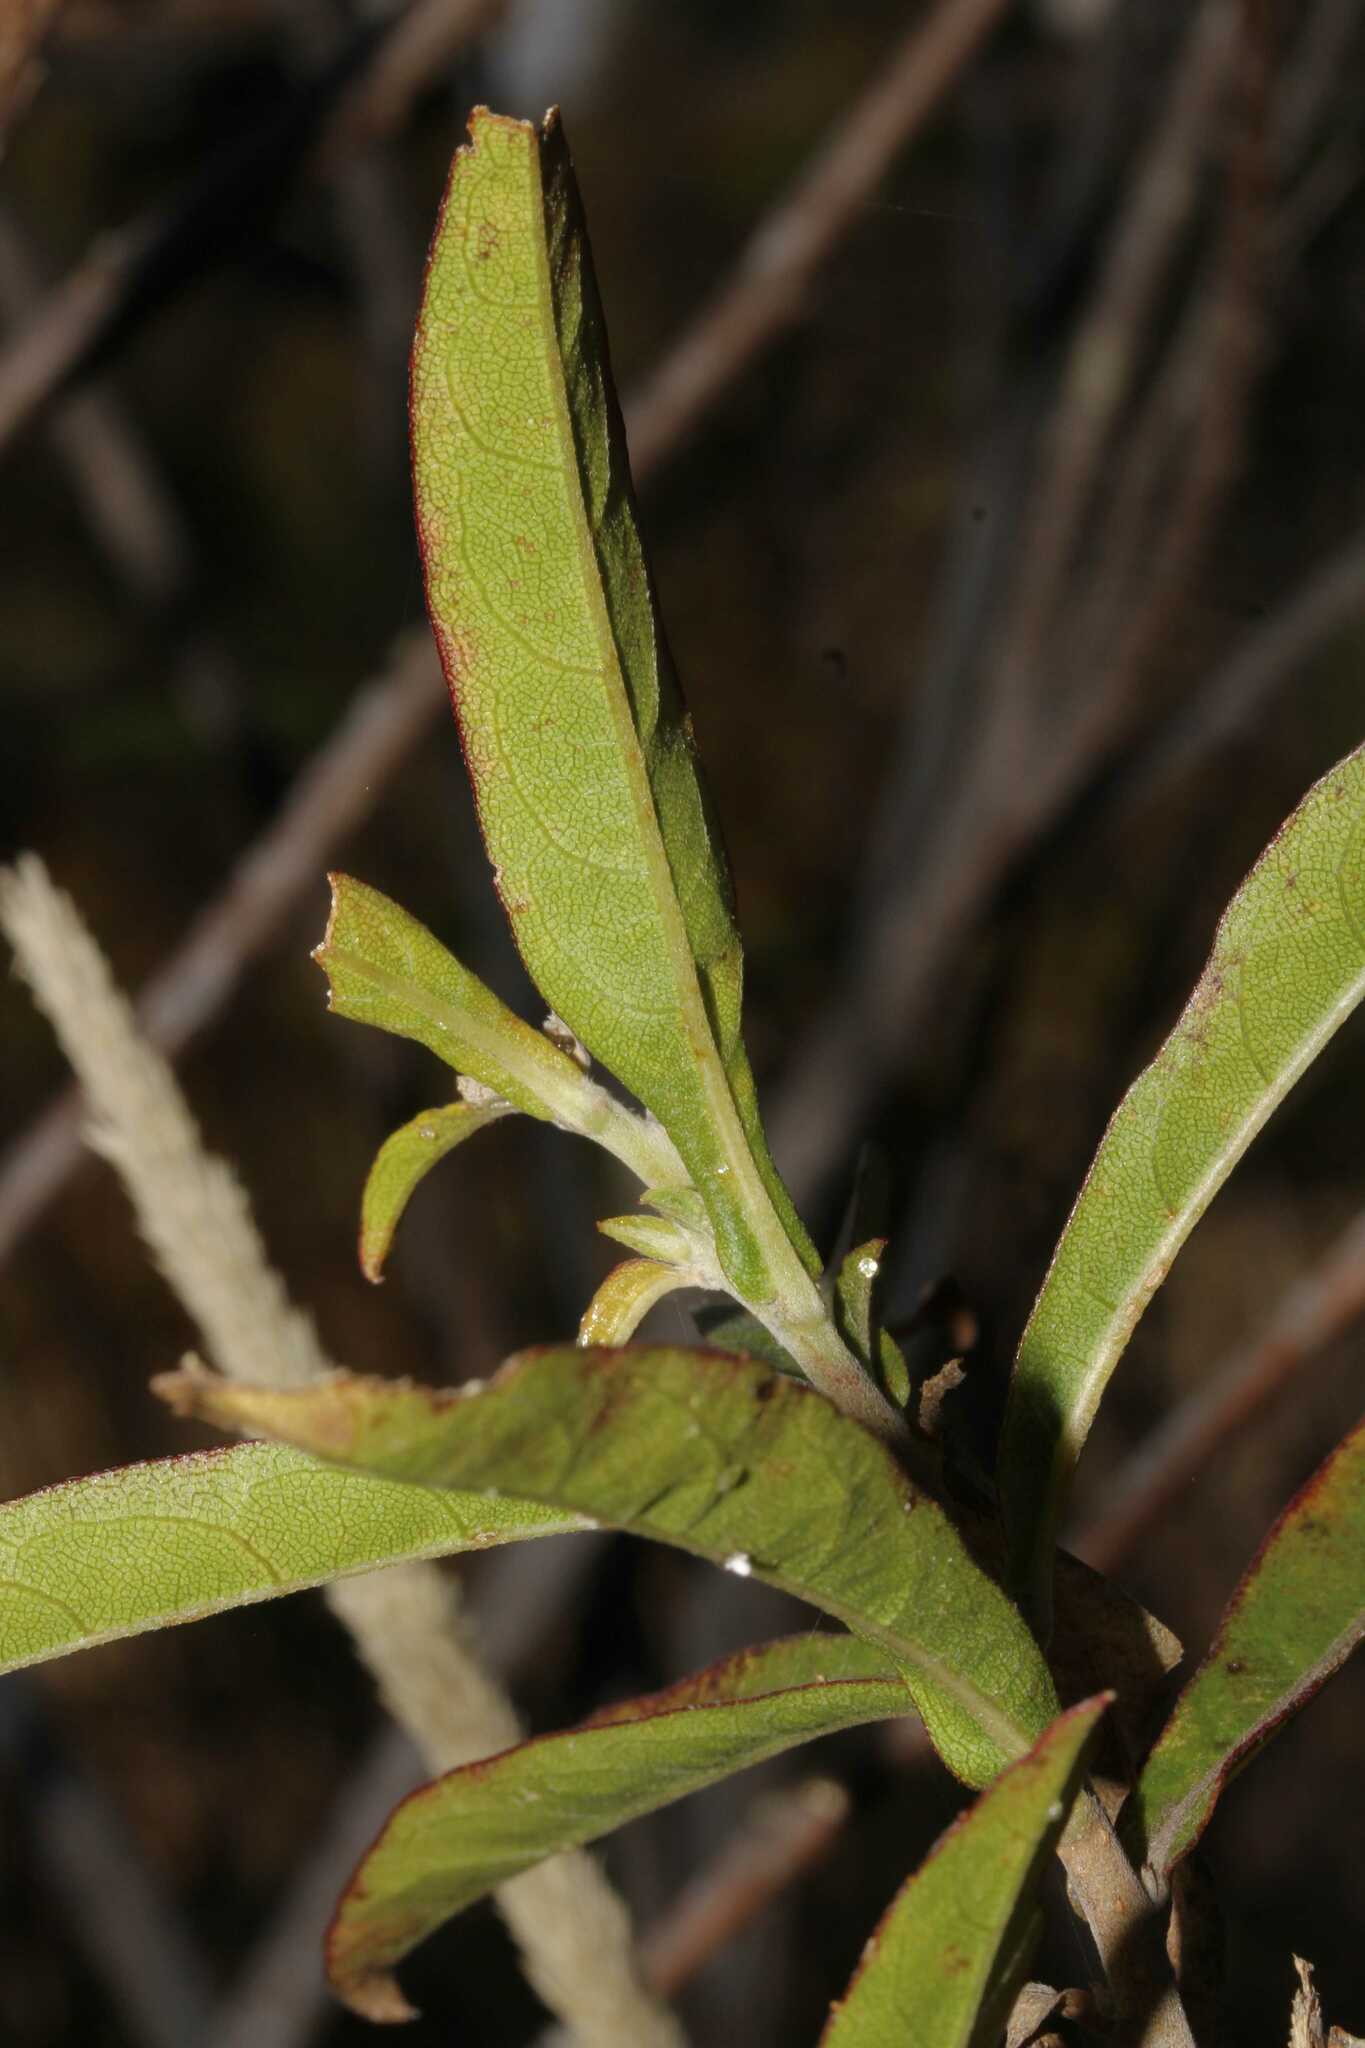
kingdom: Plantae
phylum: Tracheophyta
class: Magnoliopsida
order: Asterales
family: Asteraceae
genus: Verbesina
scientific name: Verbesina virgata
